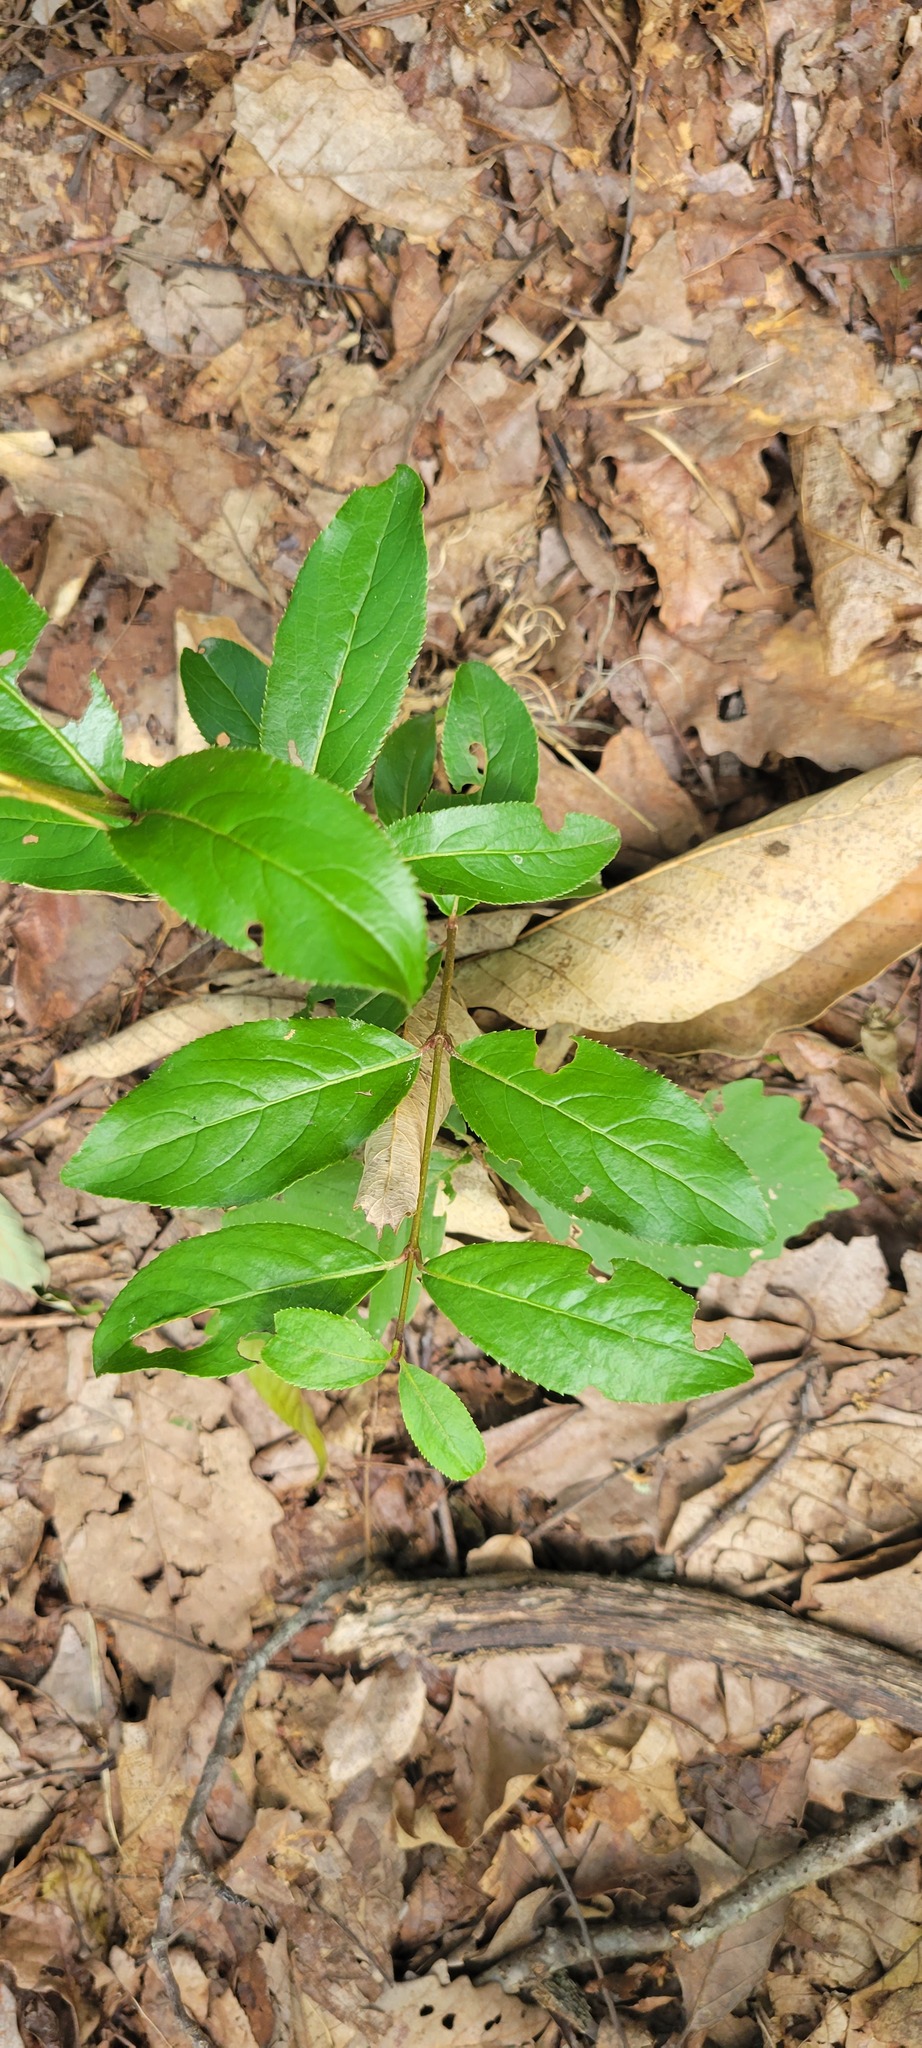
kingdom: Plantae
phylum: Tracheophyta
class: Magnoliopsida
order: Dipsacales
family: Viburnaceae
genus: Viburnum
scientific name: Viburnum rufidulum
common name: Blue haw
